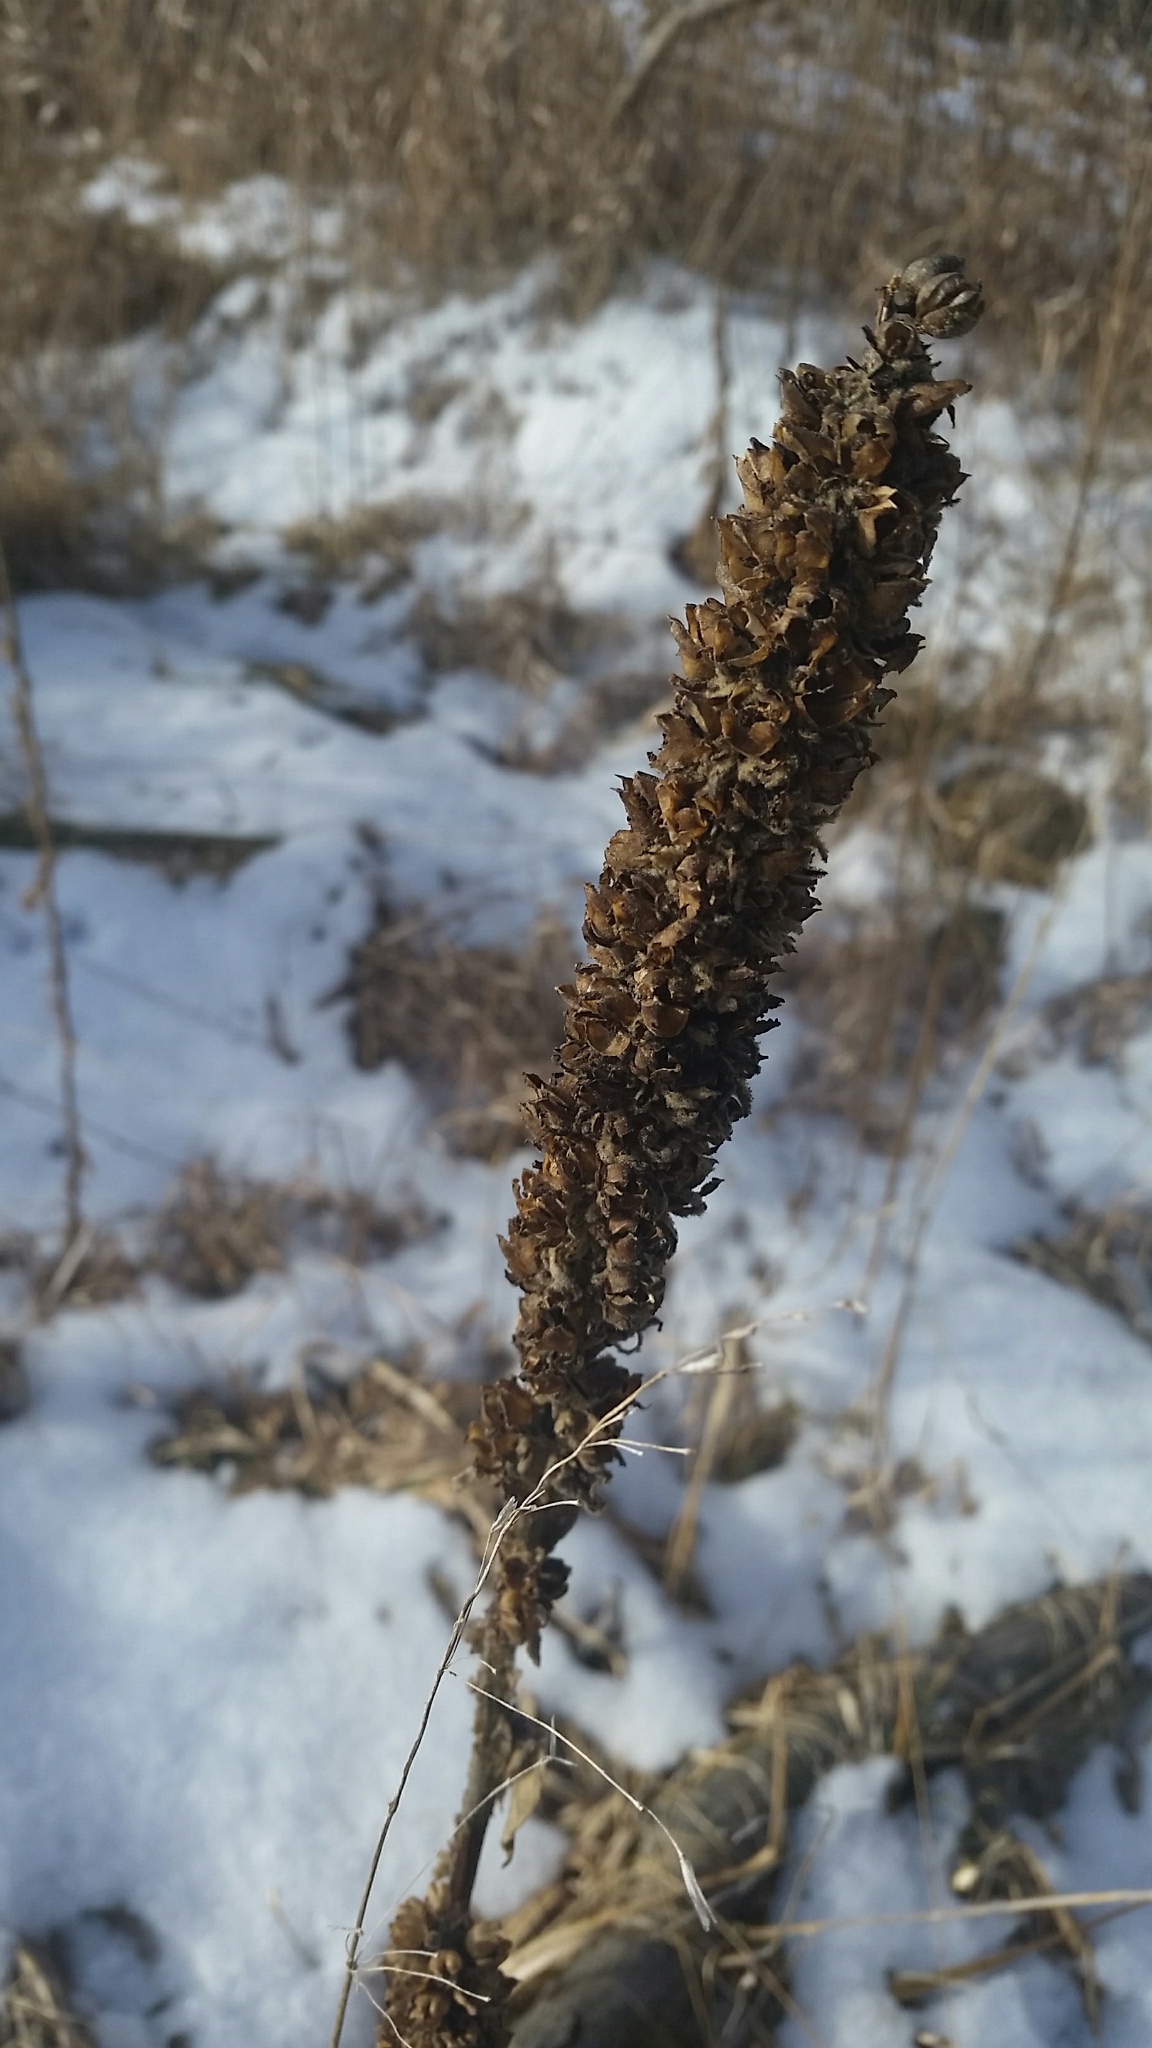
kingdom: Plantae
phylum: Tracheophyta
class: Magnoliopsida
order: Lamiales
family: Scrophulariaceae
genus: Verbascum
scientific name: Verbascum thapsus
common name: Common mullein
